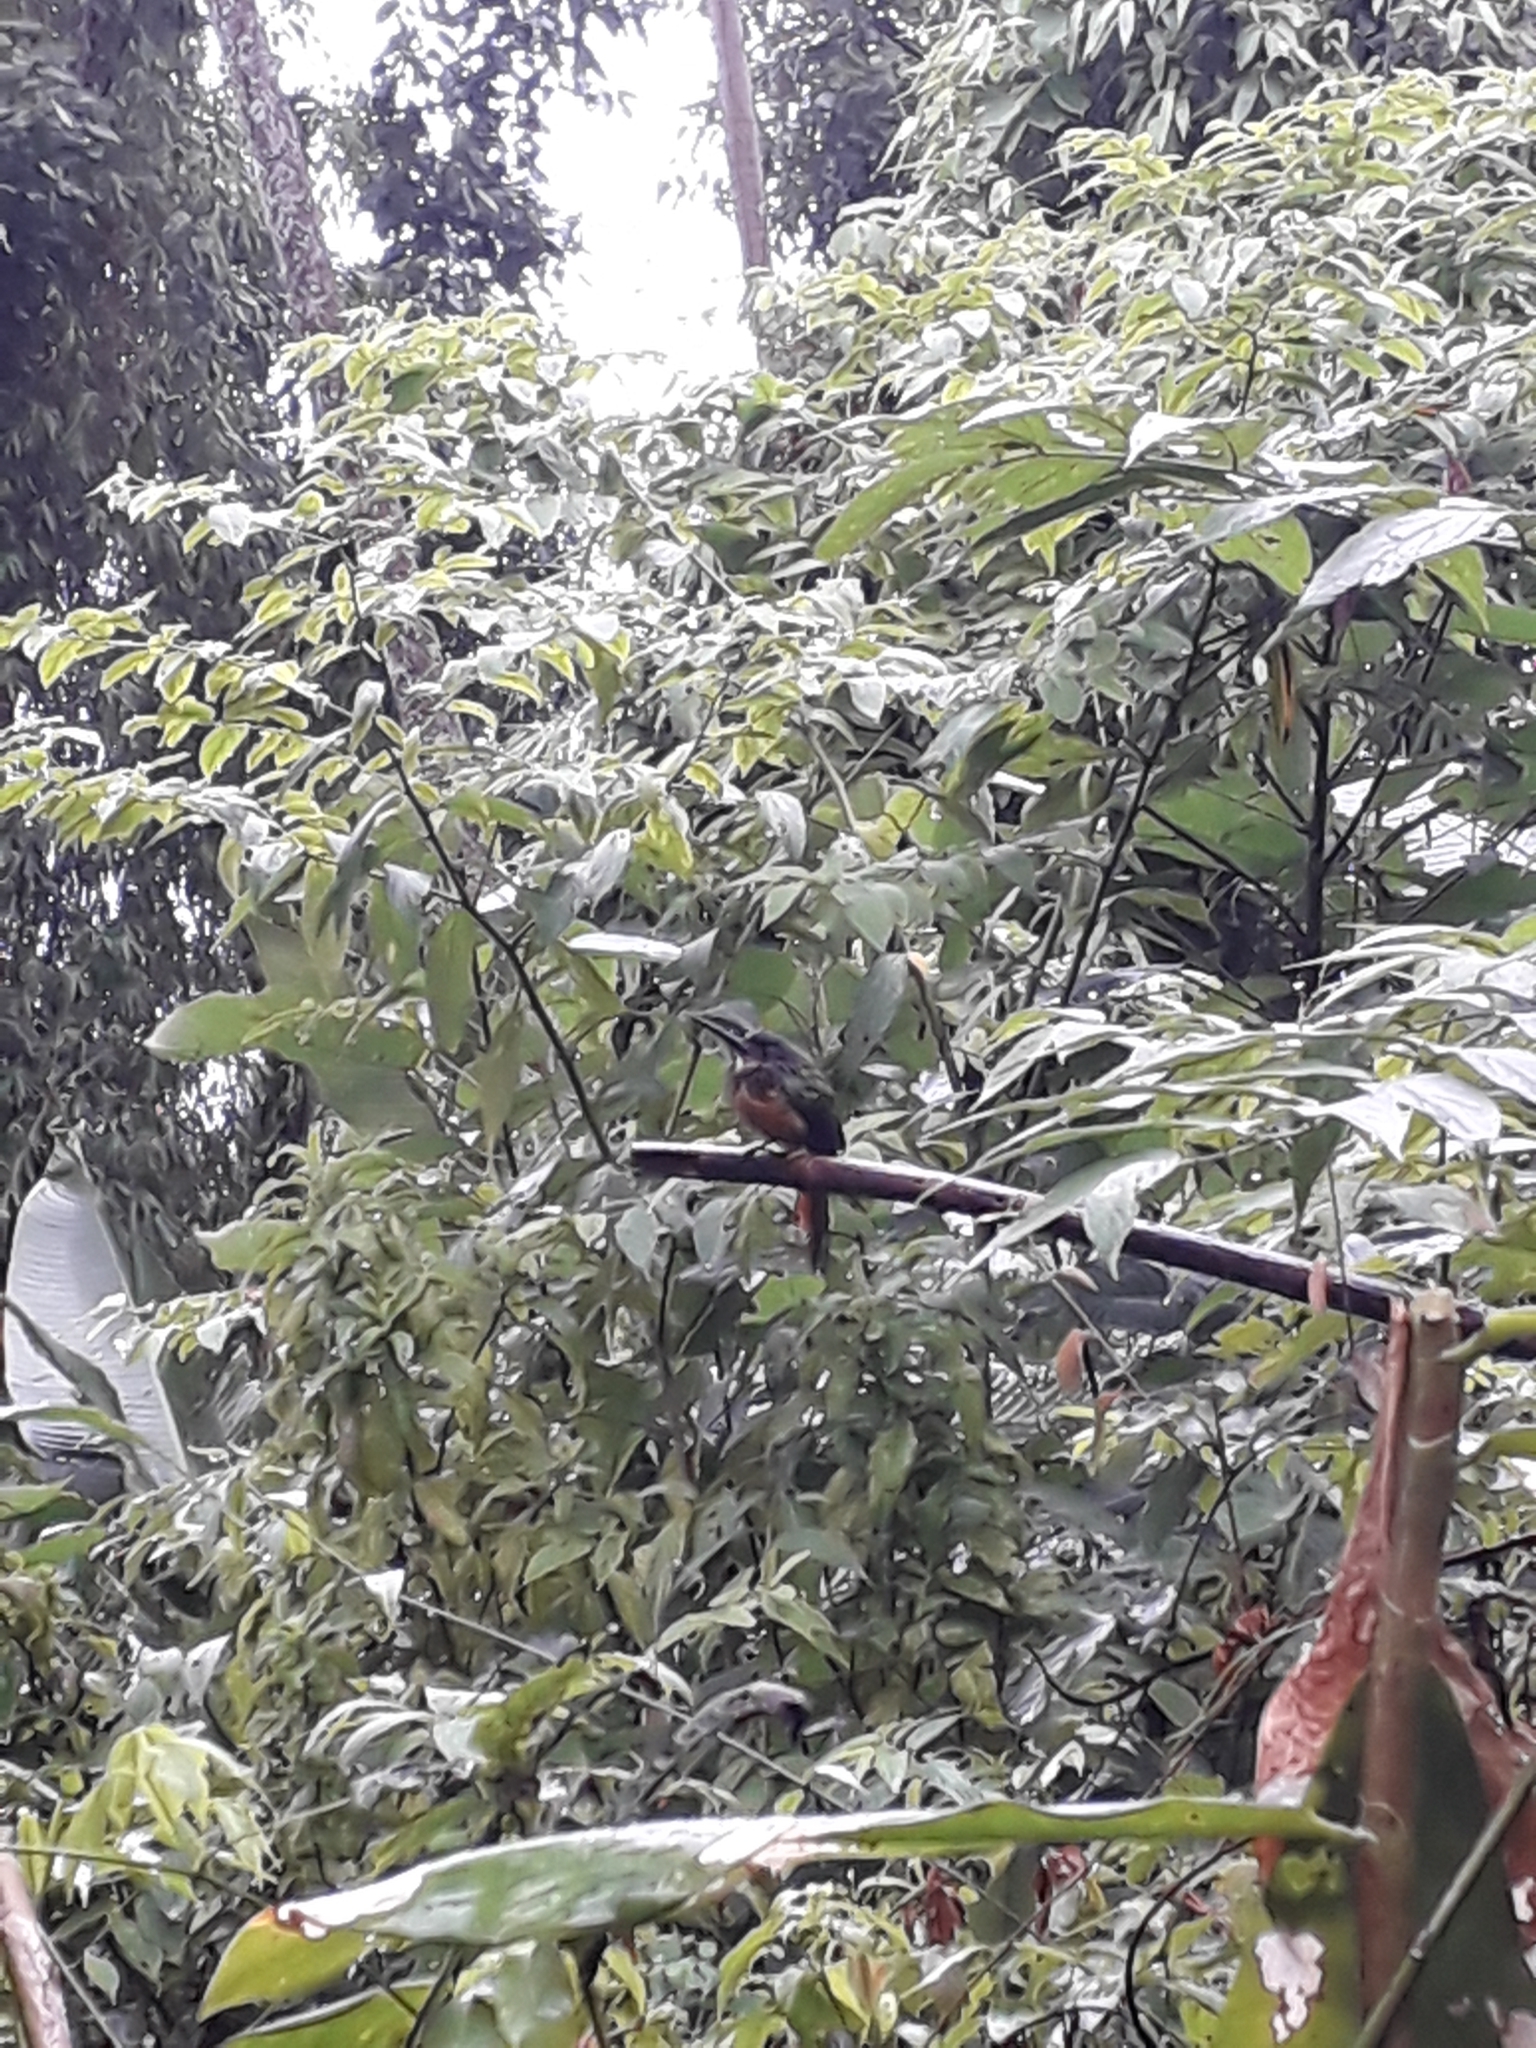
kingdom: Animalia
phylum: Chordata
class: Aves
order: Piciformes
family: Galbulidae
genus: Galbula
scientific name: Galbula ruficauda
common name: Rufous-tailed jacamar
